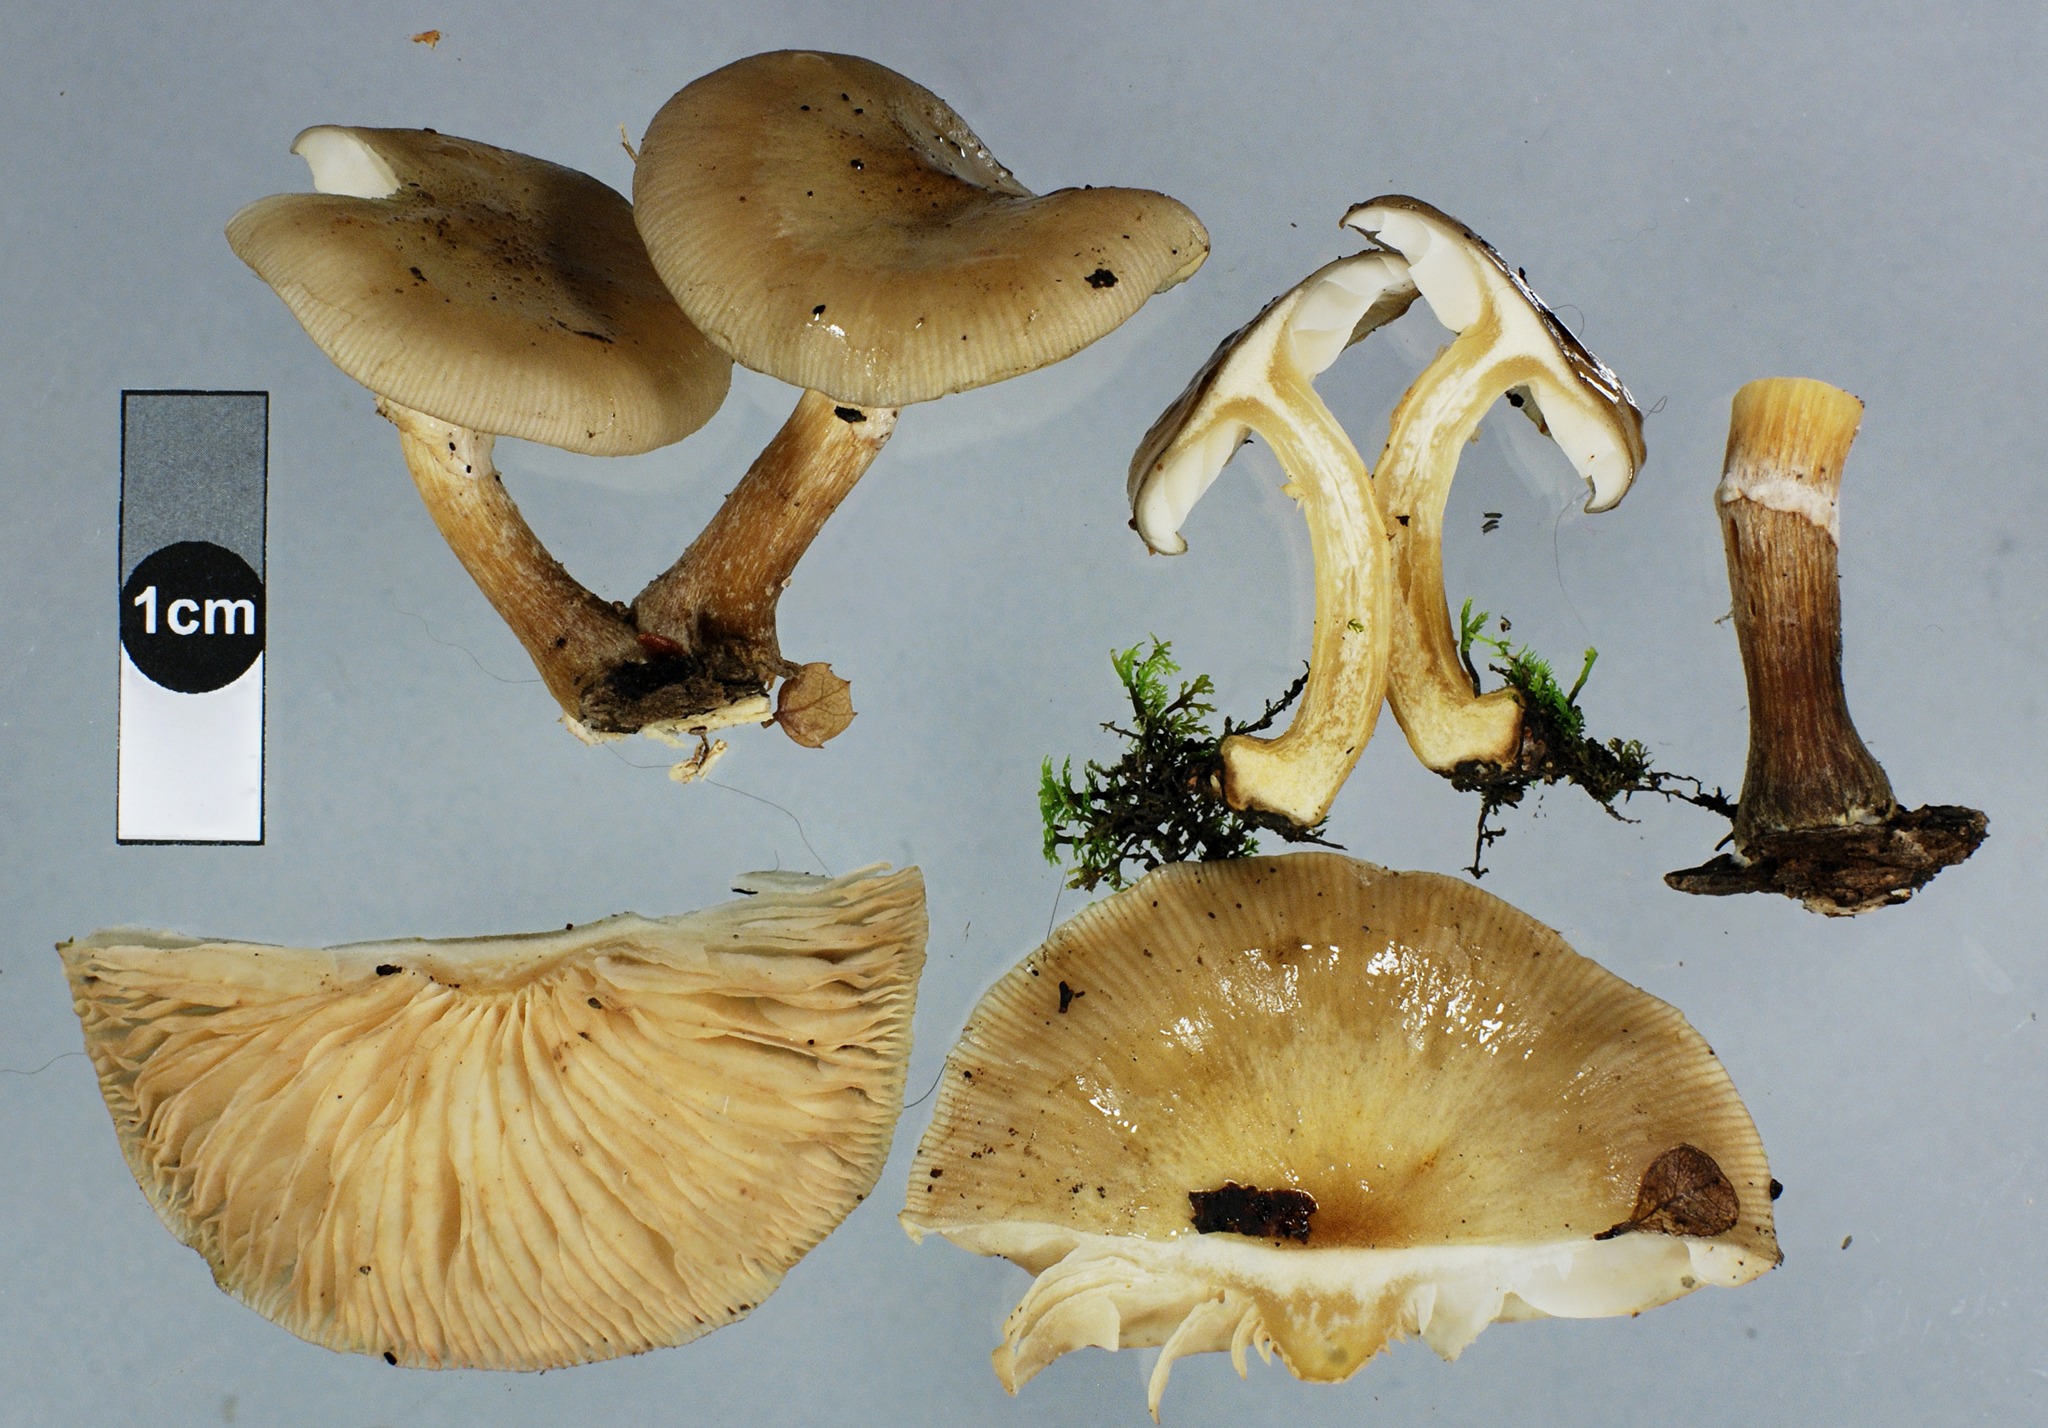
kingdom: Fungi
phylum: Basidiomycota
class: Agaricomycetes
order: Agaricales
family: Physalacriaceae
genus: Armillaria
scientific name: Armillaria novae-zelandiae
